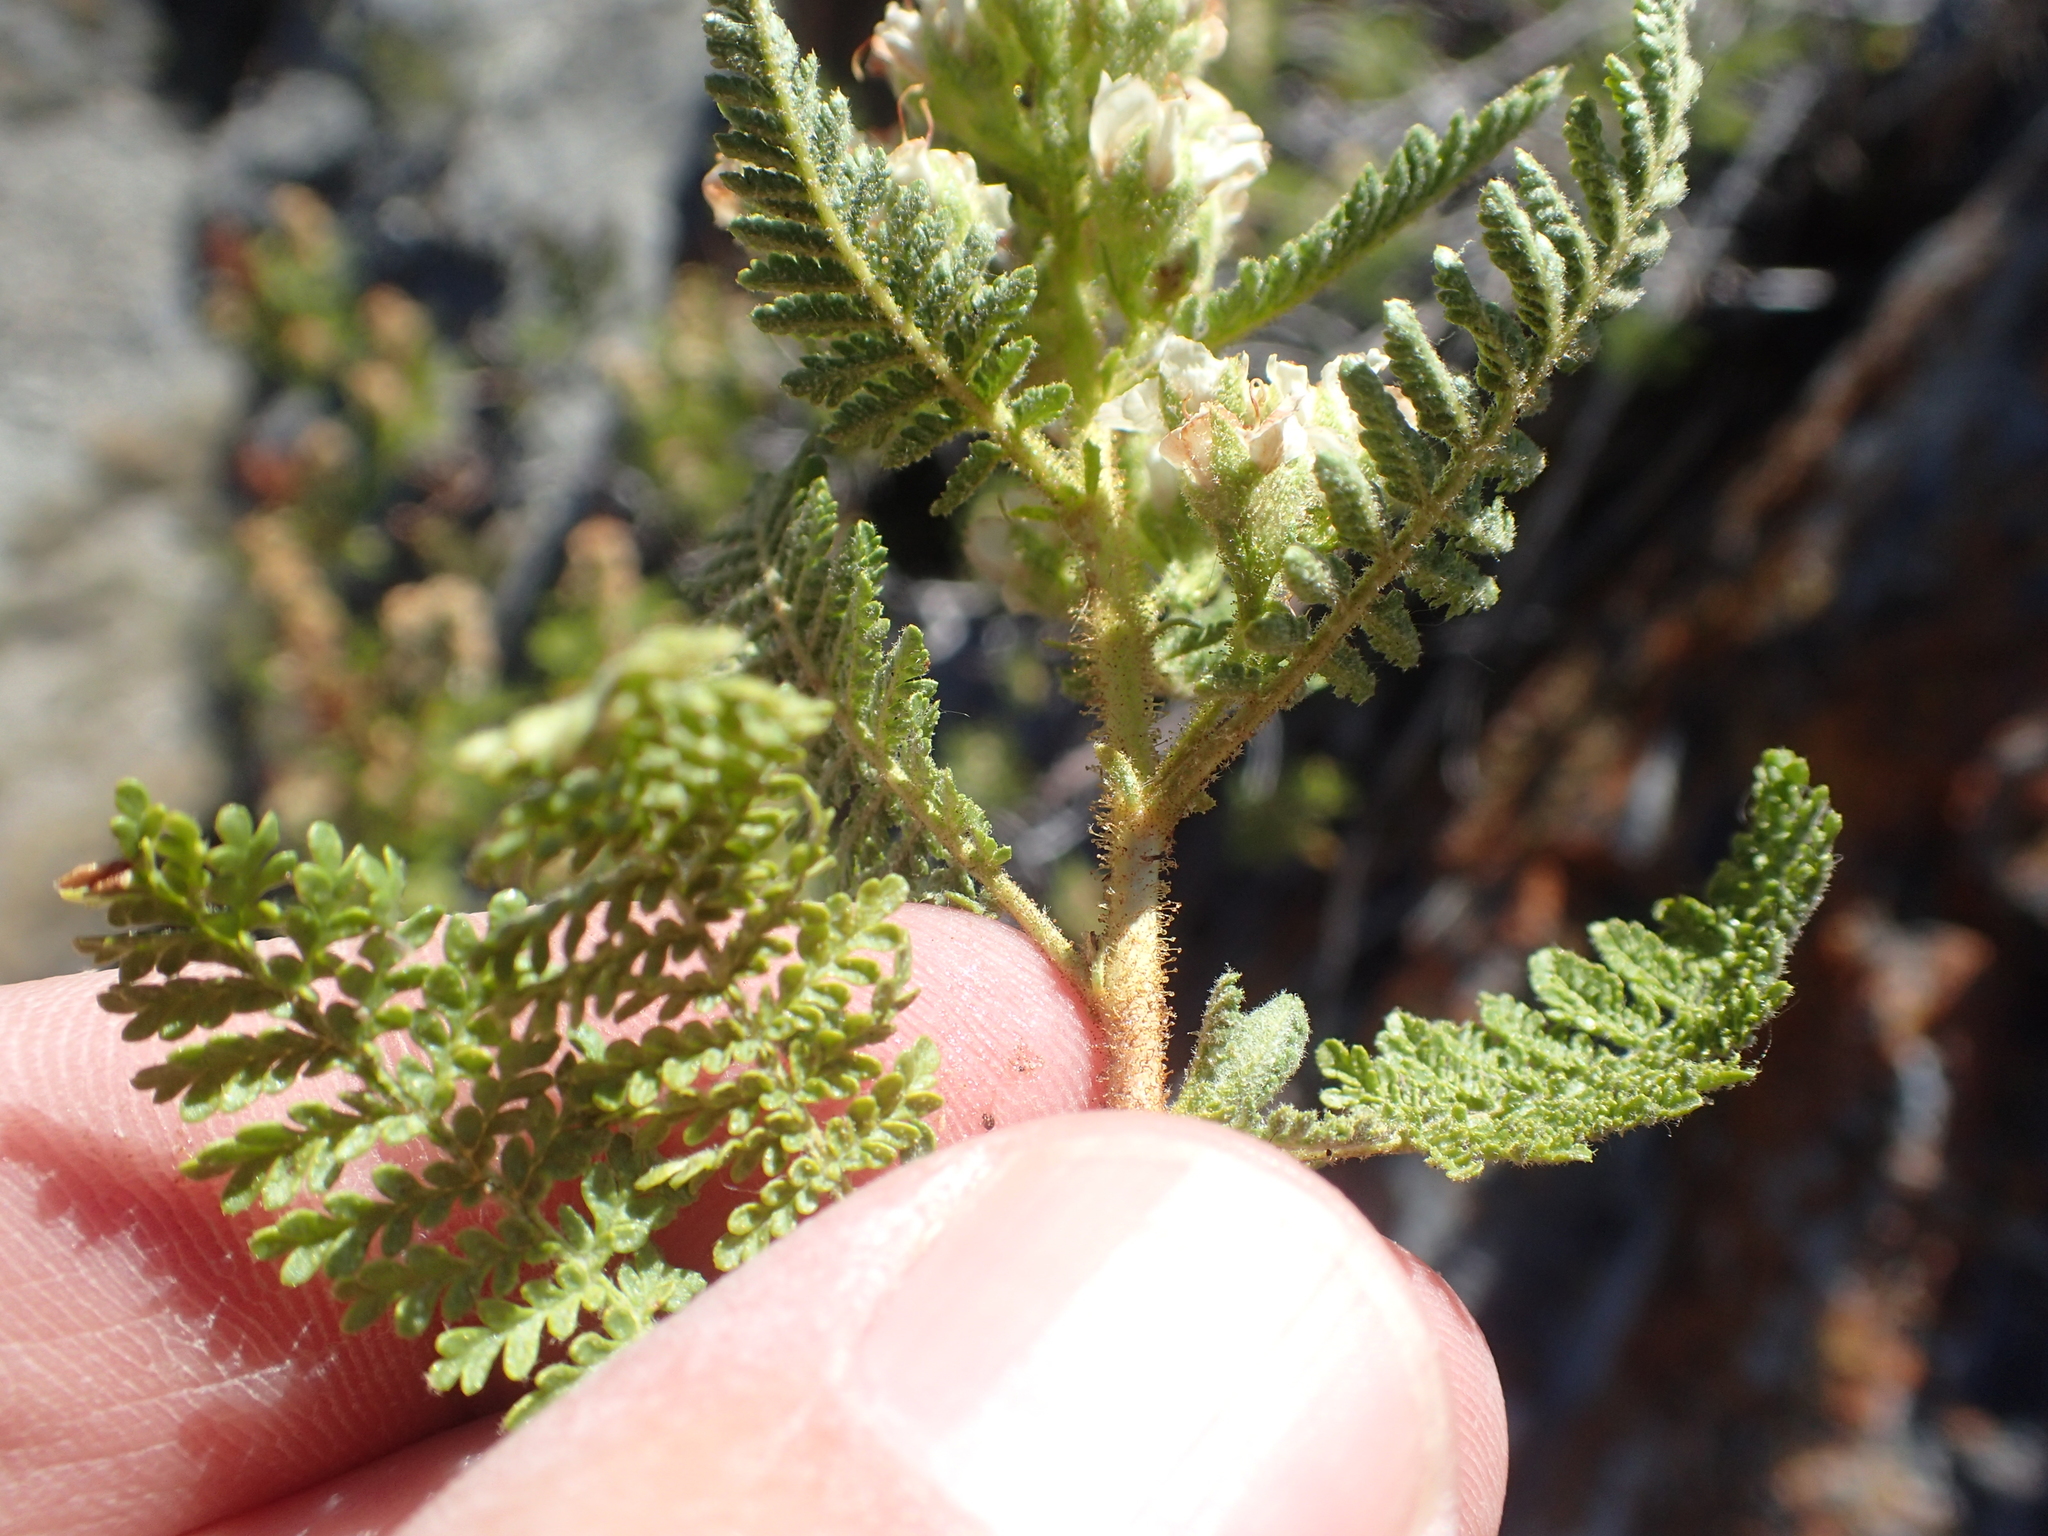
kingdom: Plantae
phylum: Tracheophyta
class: Magnoliopsida
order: Rosales
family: Rosaceae
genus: Chamaebatiaria
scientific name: Chamaebatiaria millefolium
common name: Fernbush
